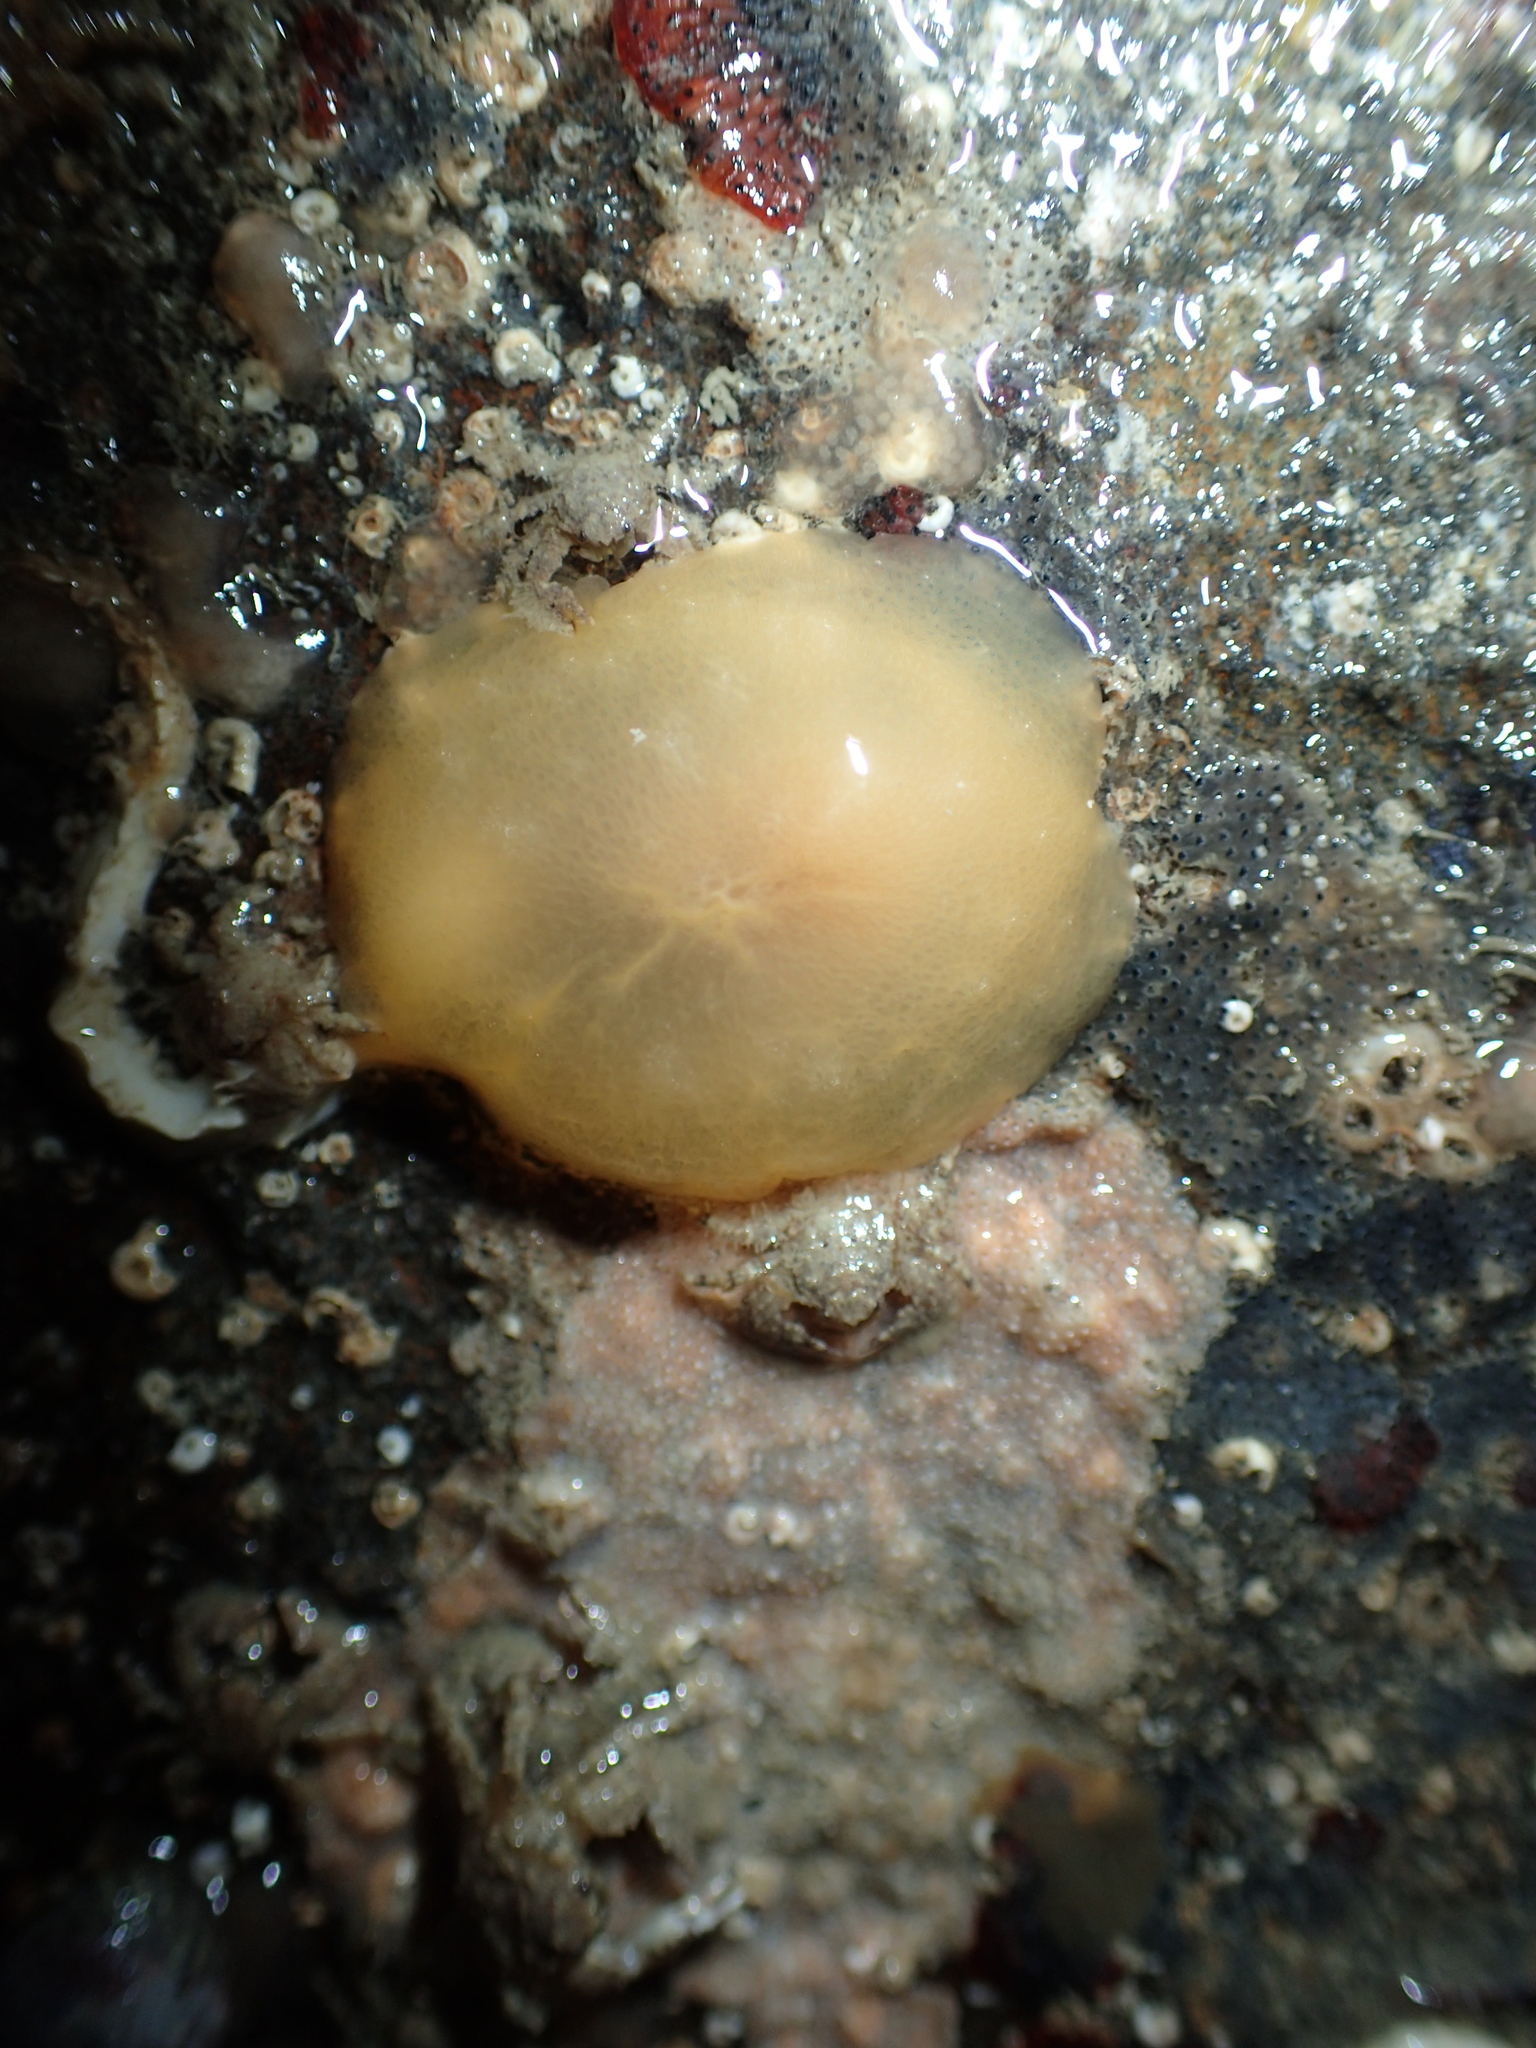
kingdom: Animalia
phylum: Mollusca
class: Gastropoda
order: Pleurobranchida
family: Pleurobranchidae
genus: Berthella
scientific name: Berthella plumula
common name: Yellow-plumed sea slug
